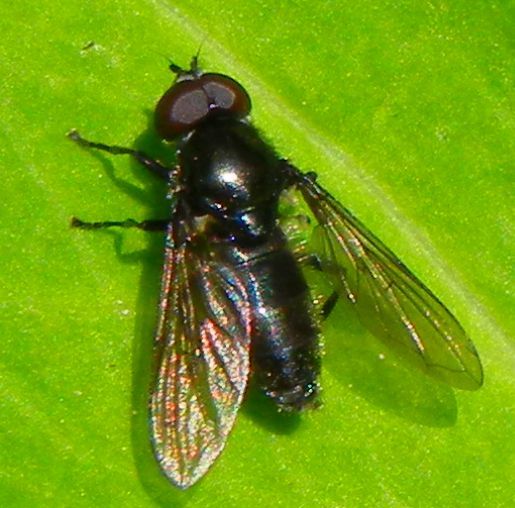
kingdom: Animalia
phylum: Arthropoda
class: Insecta
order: Diptera
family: Syrphidae
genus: Cheilosia
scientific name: Cheilosia variabilis
